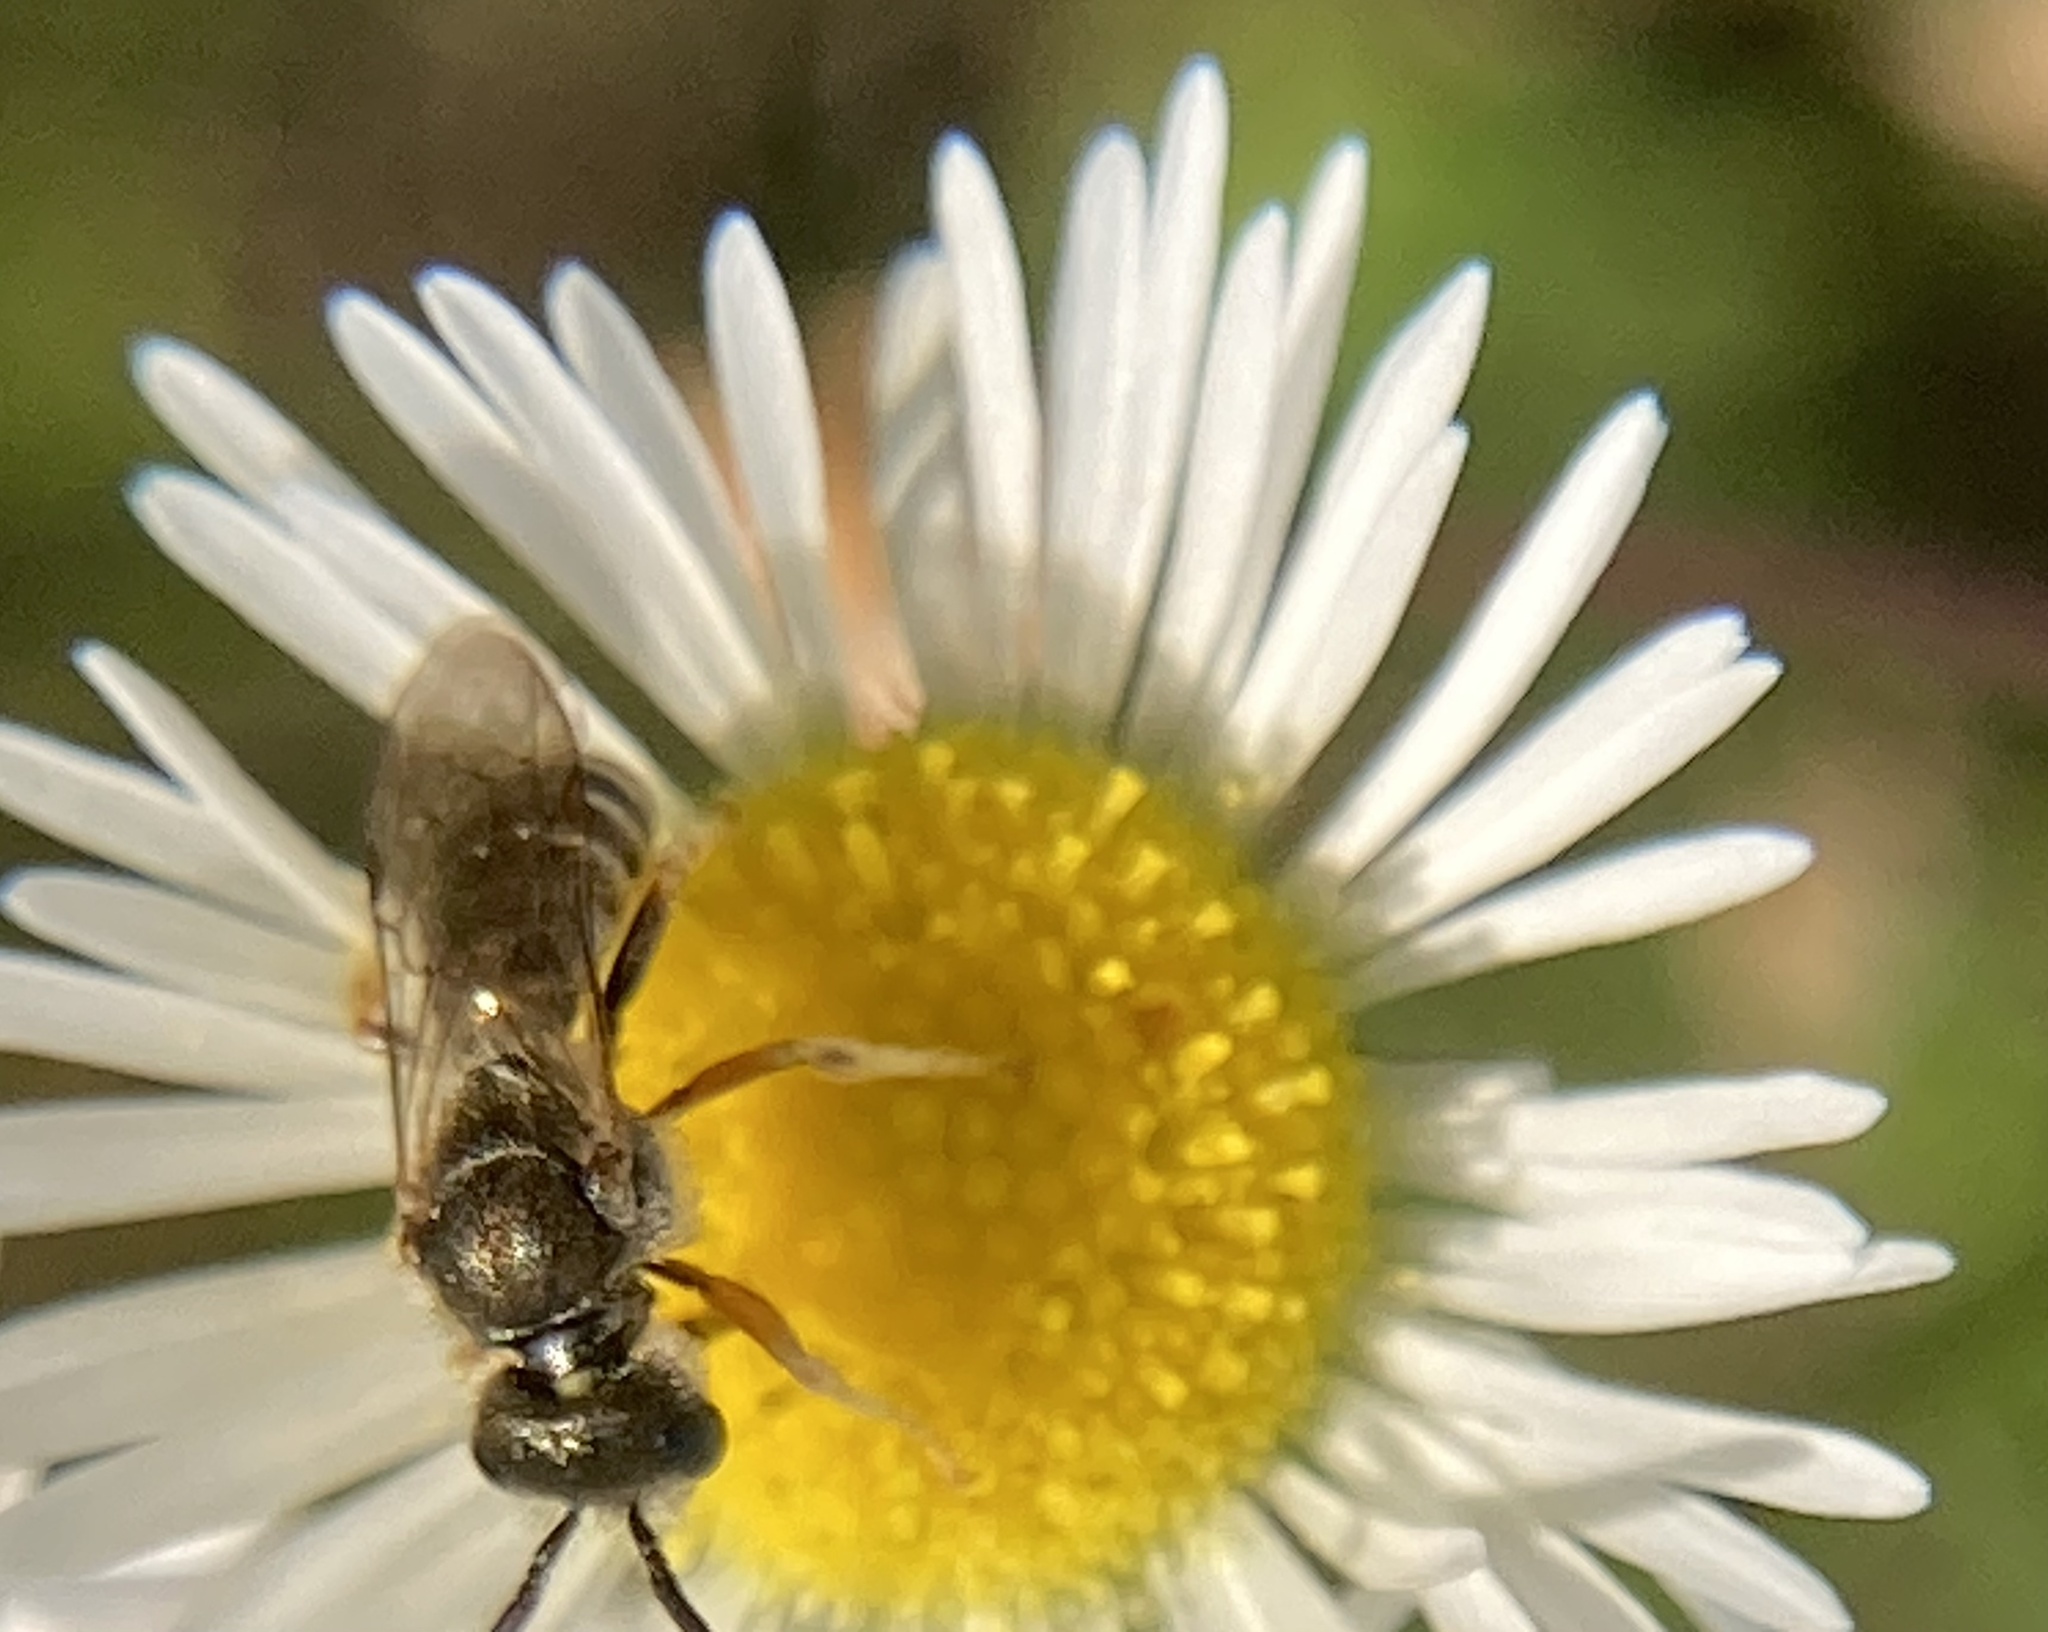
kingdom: Animalia
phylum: Arthropoda
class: Insecta
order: Hymenoptera
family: Halictidae
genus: Halictus
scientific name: Halictus confusus
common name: Southern bronze furrow bee
